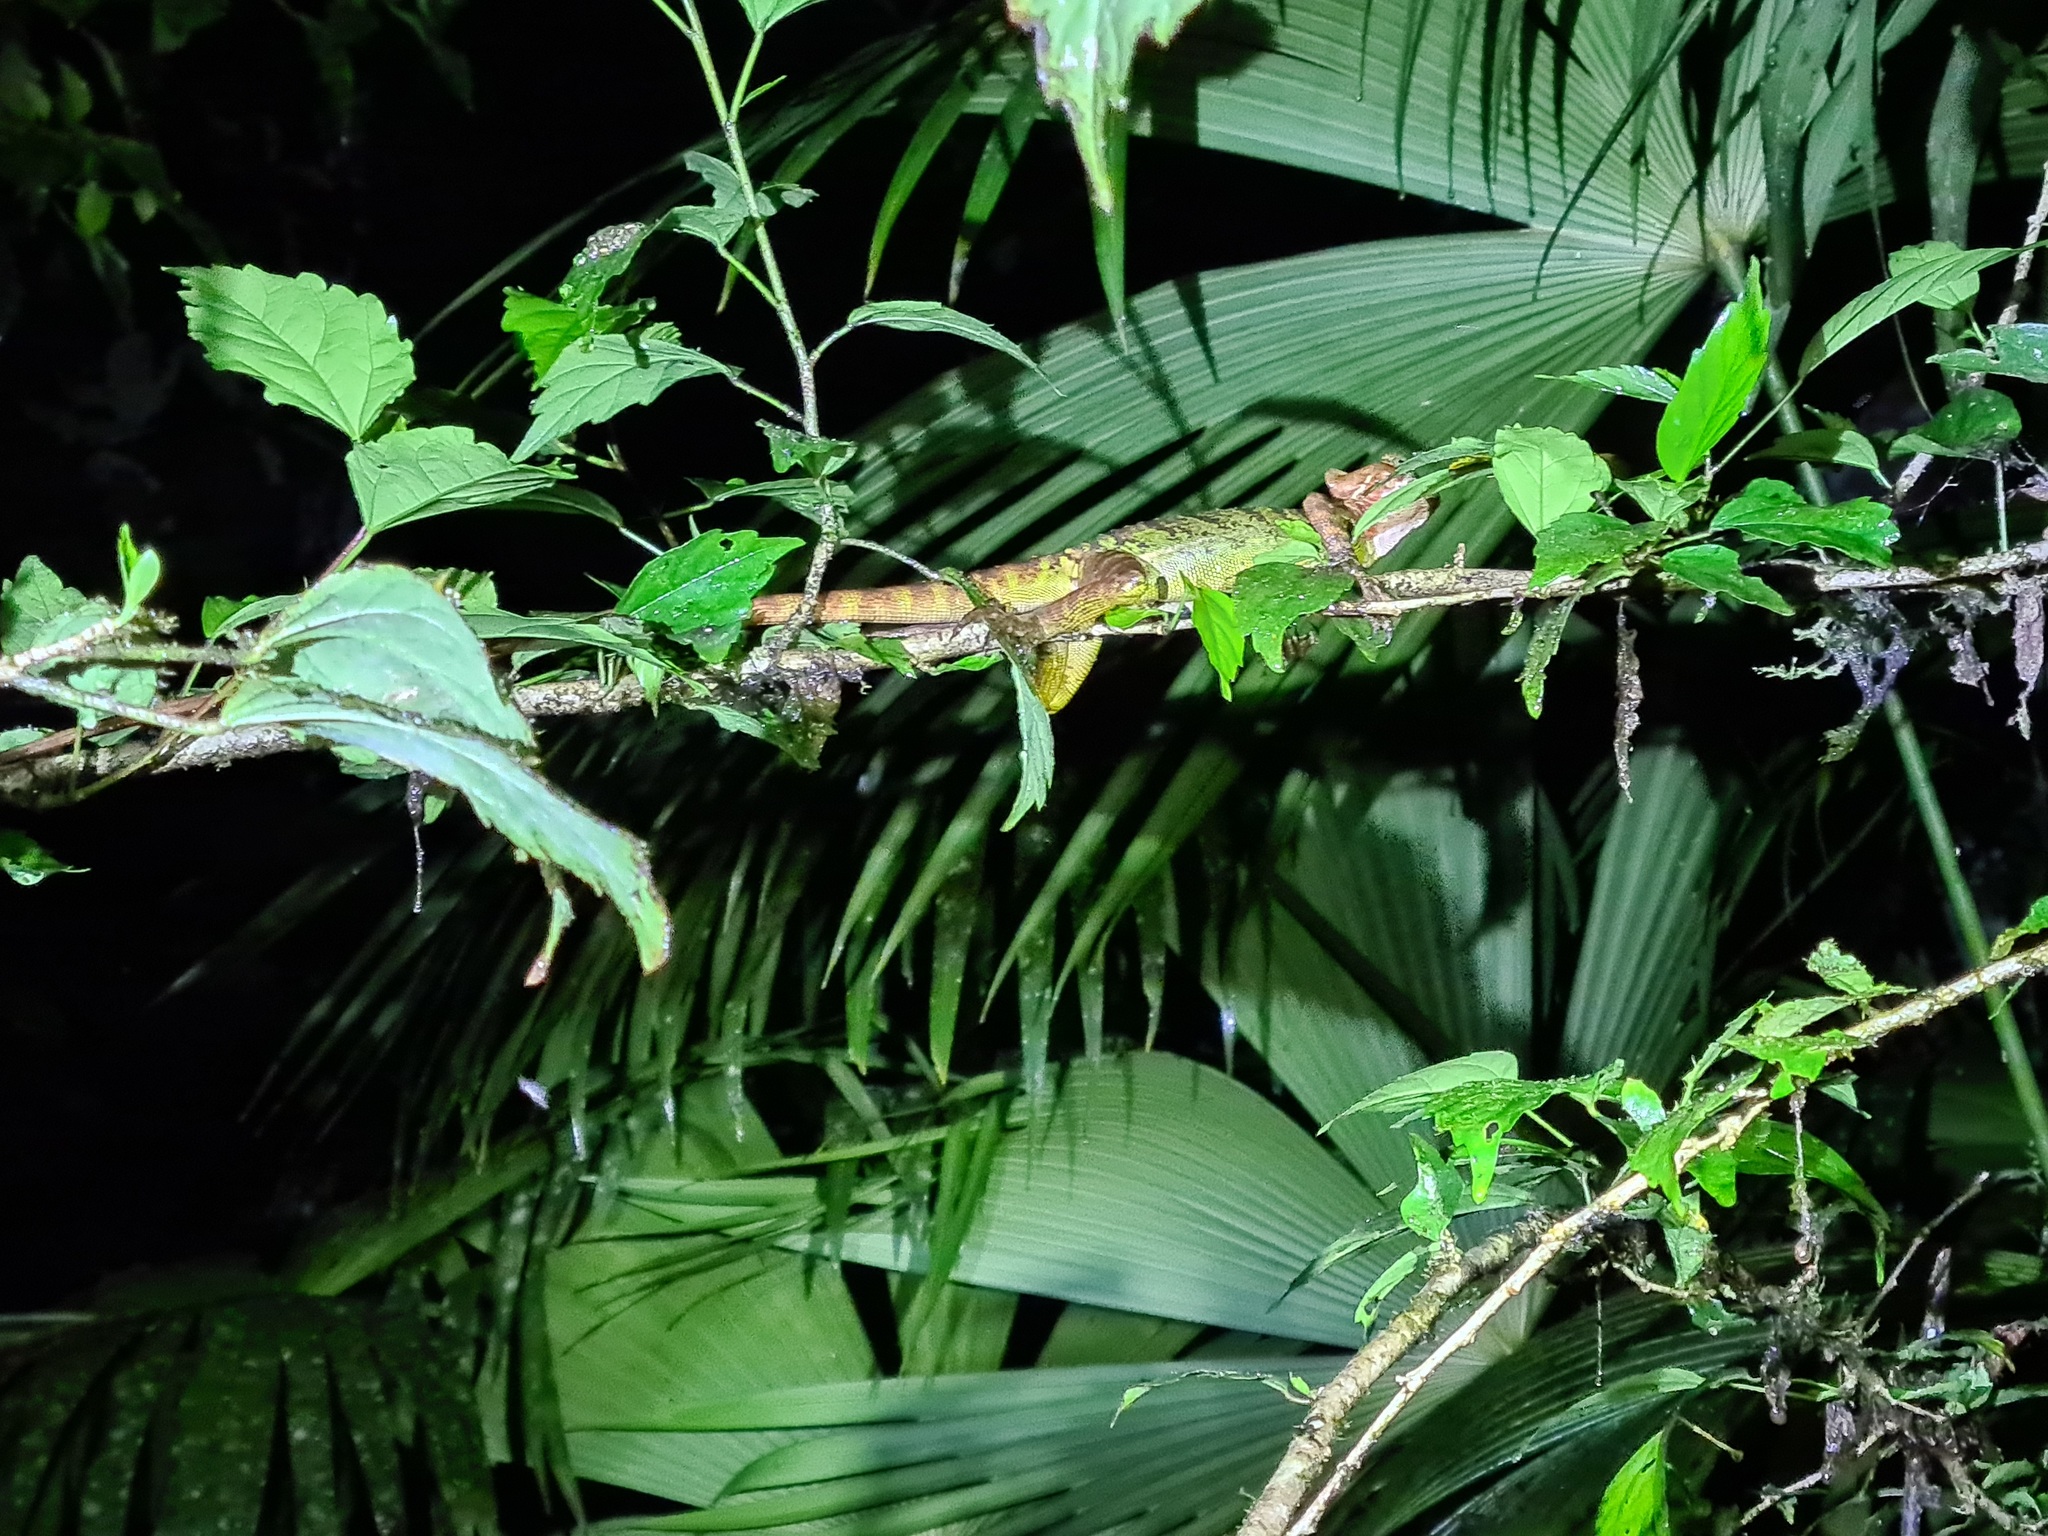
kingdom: Animalia
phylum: Chordata
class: Squamata
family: Corytophanidae
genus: Basiliscus
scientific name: Basiliscus galeritus
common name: Western basilisk
